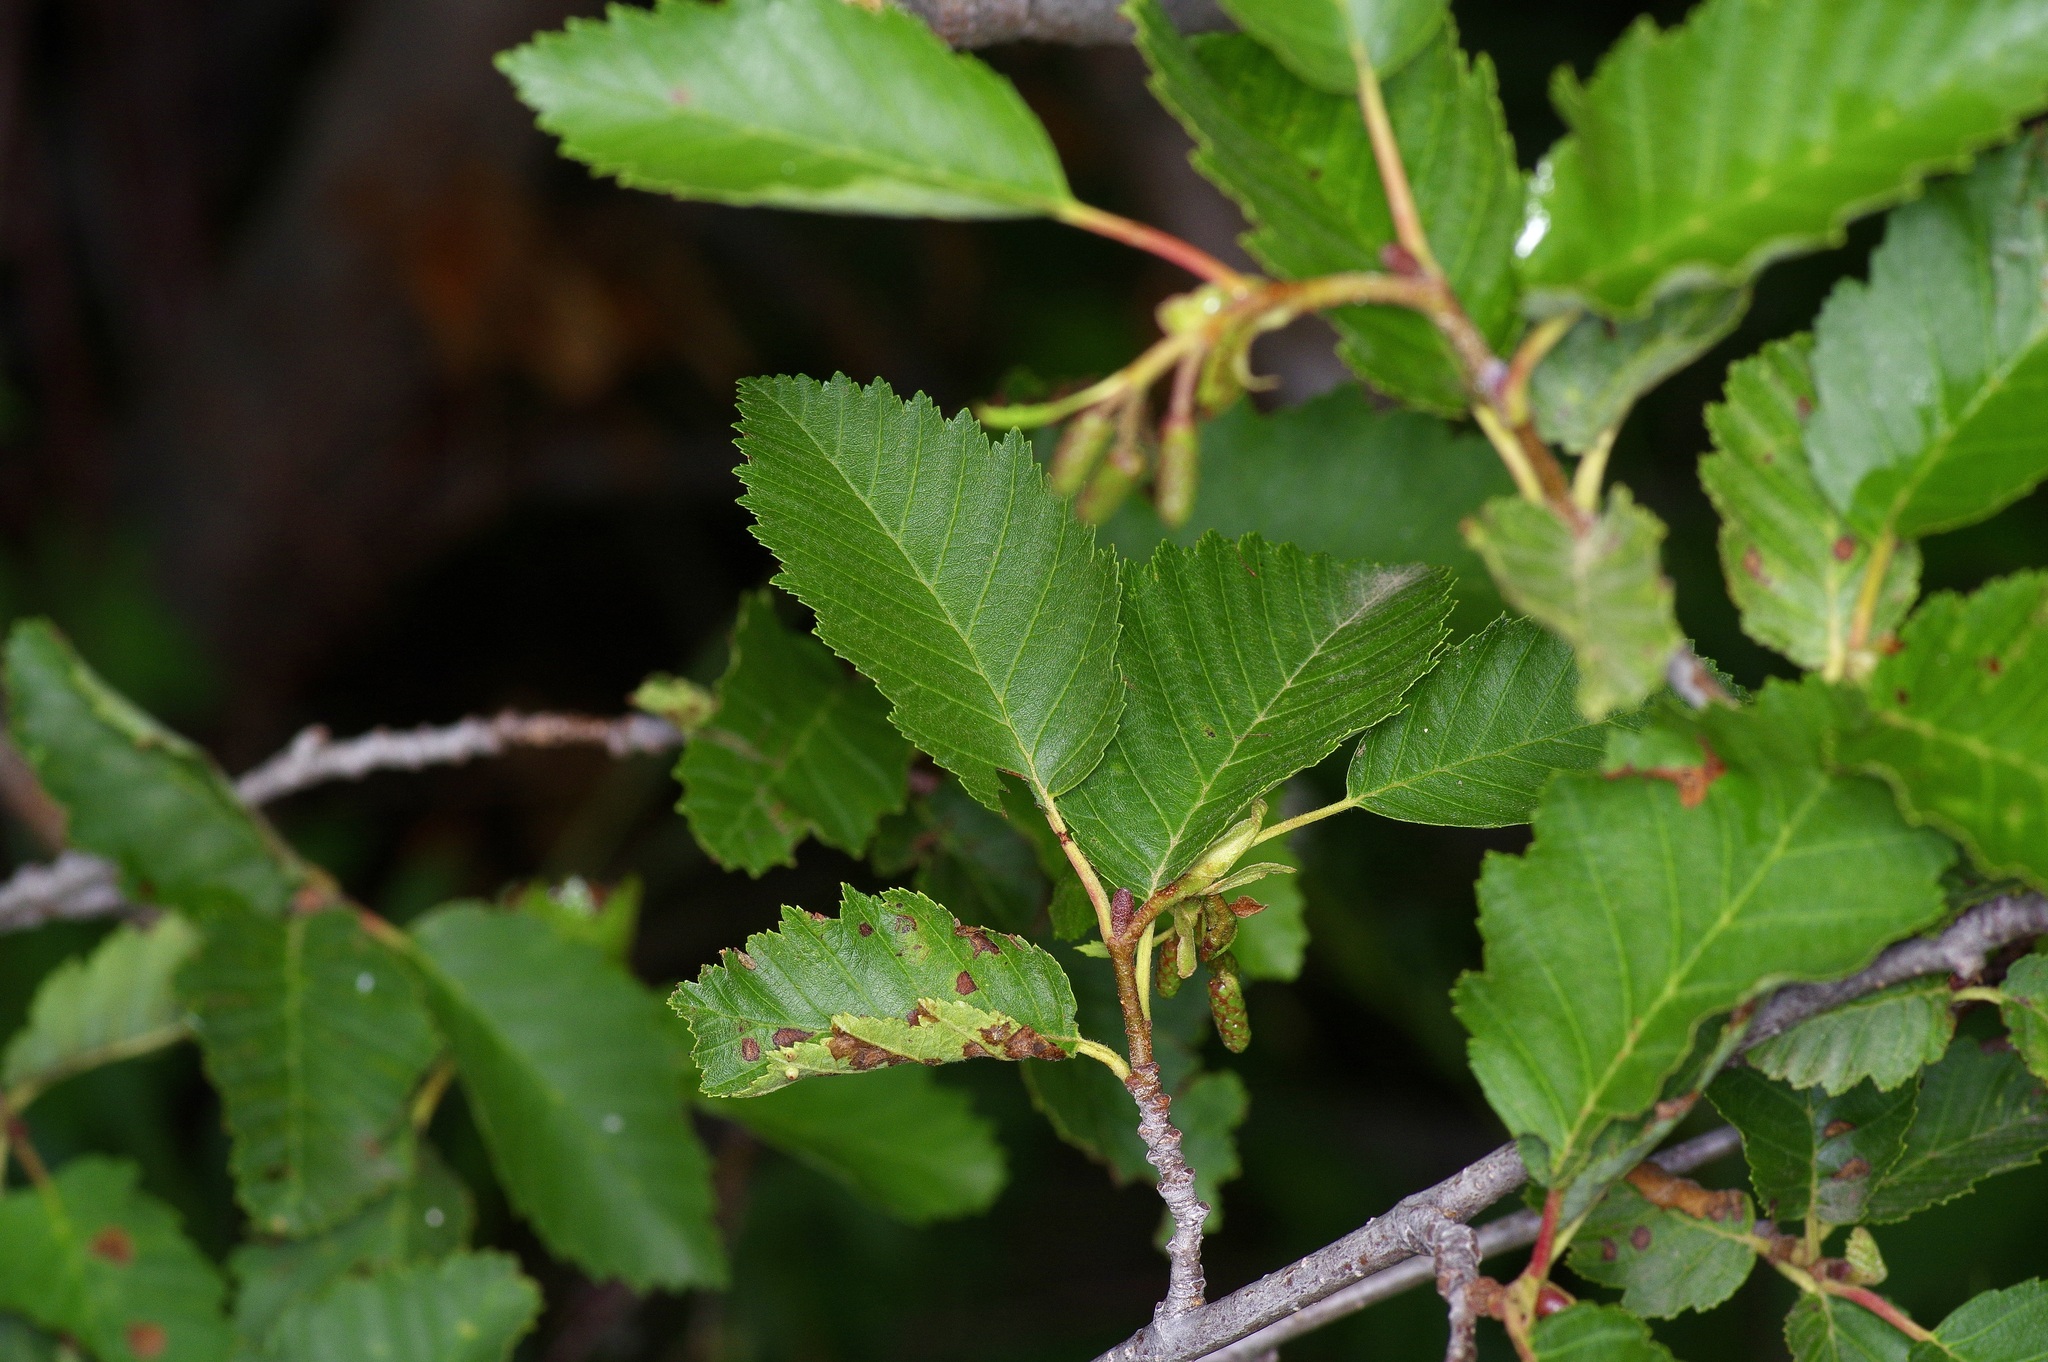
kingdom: Plantae
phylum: Tracheophyta
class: Magnoliopsida
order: Fagales
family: Betulaceae
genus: Alnus
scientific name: Alnus incana
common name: Grey alder
